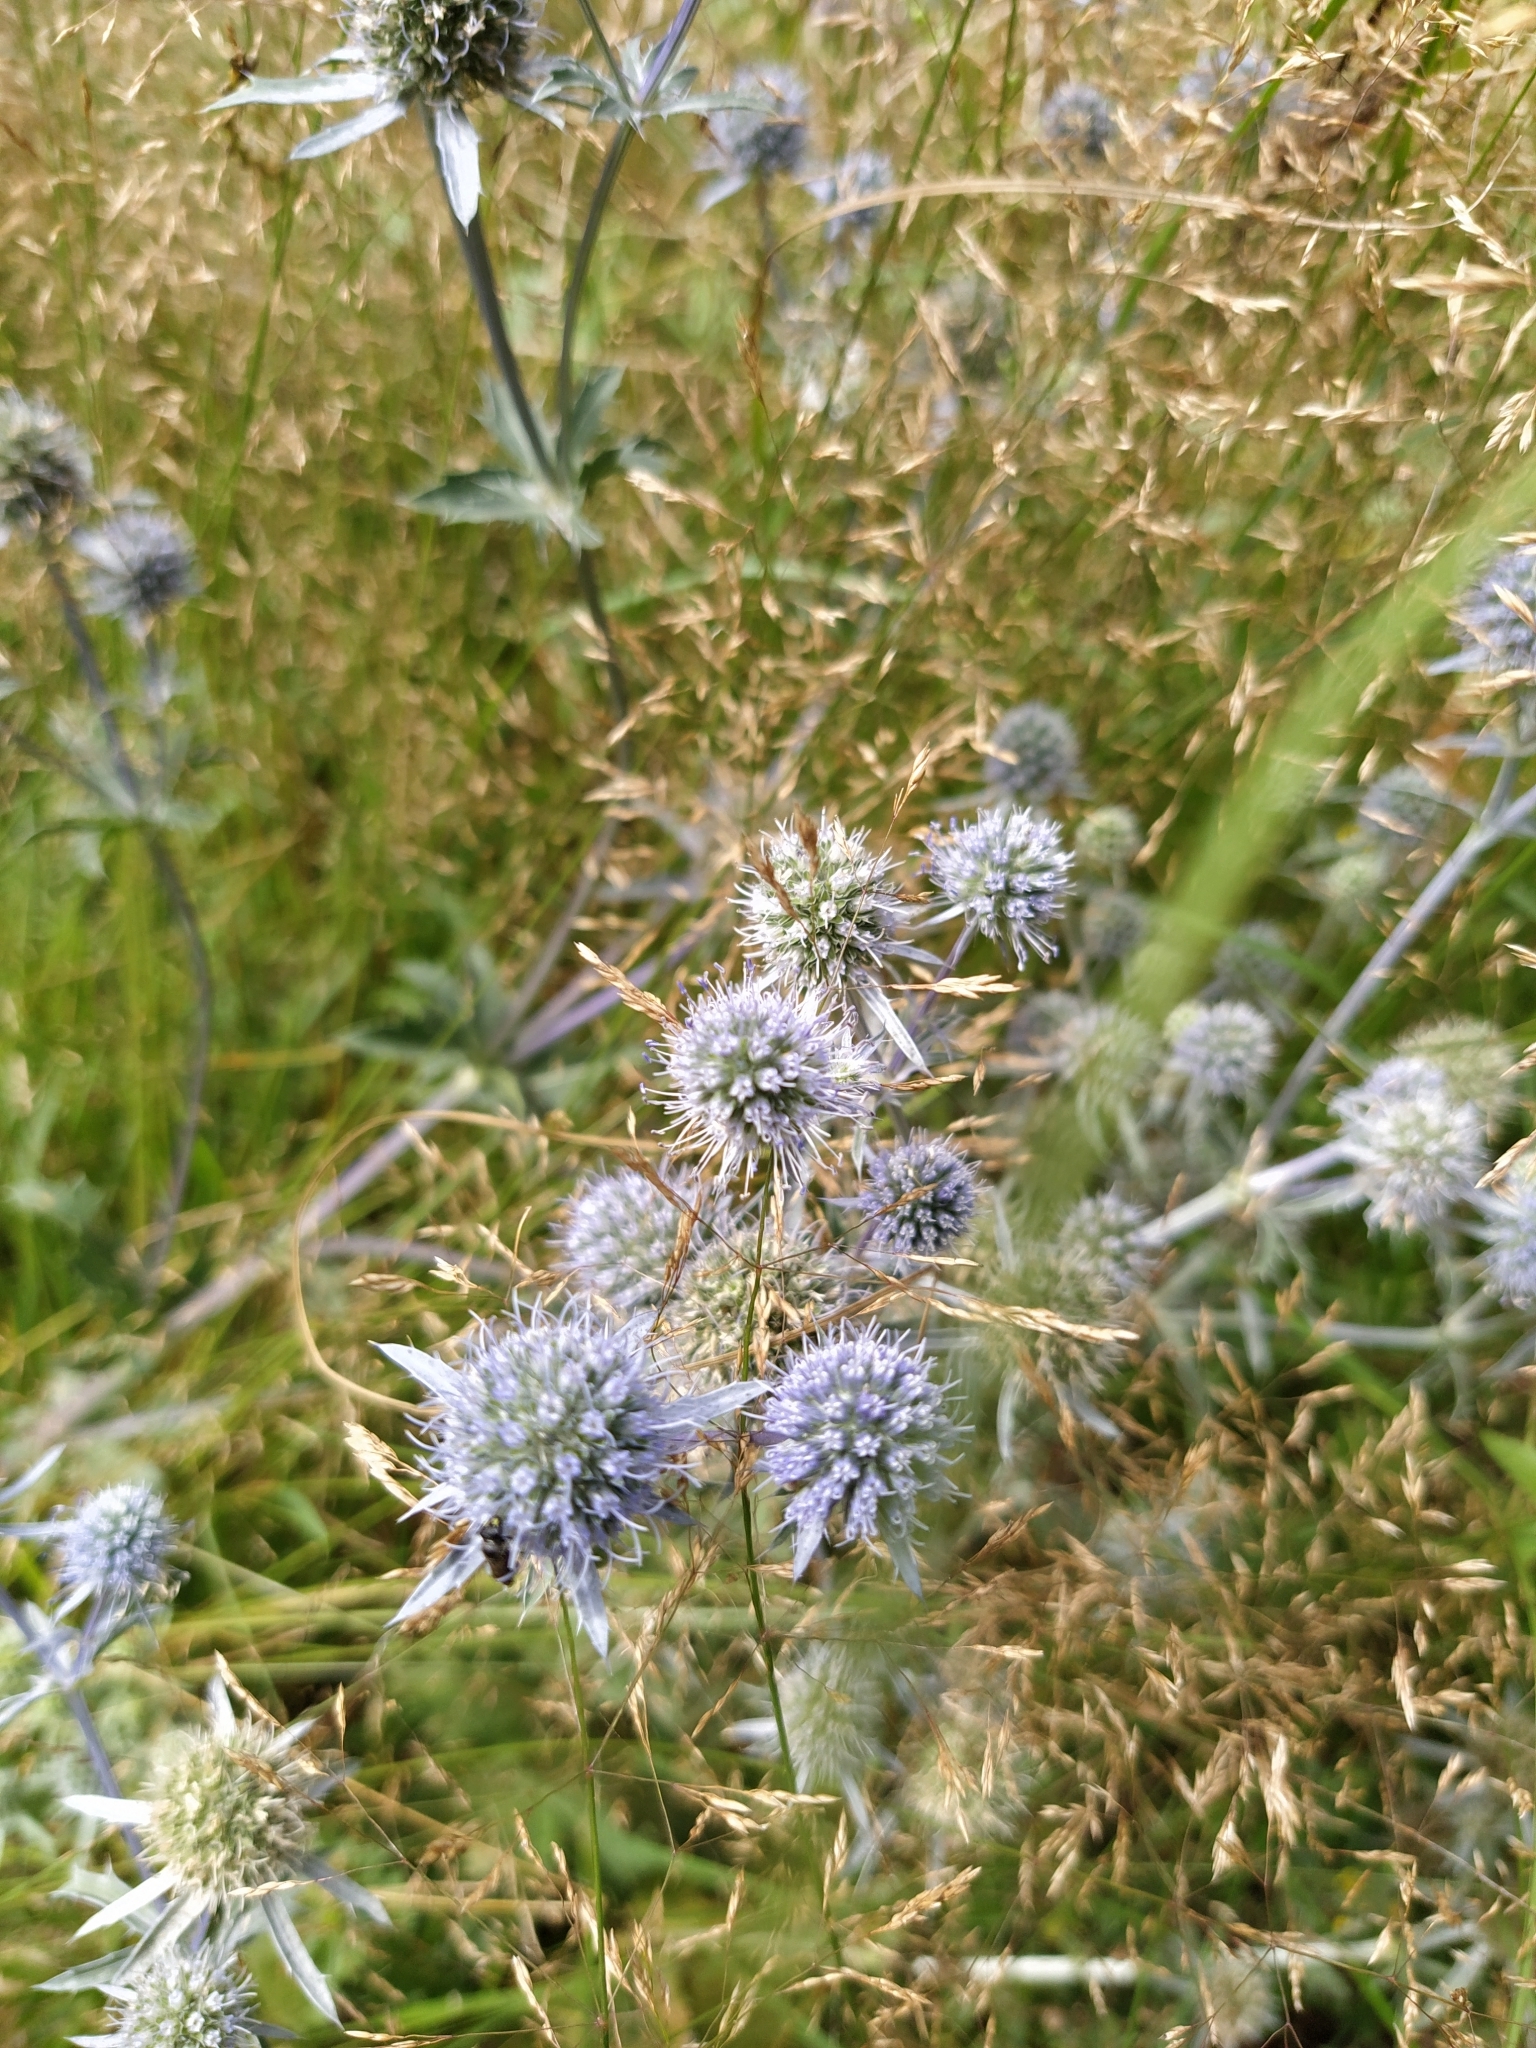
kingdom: Plantae
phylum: Tracheophyta
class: Magnoliopsida
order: Apiales
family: Apiaceae
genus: Eryngium
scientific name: Eryngium planum
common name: Blue eryngo
